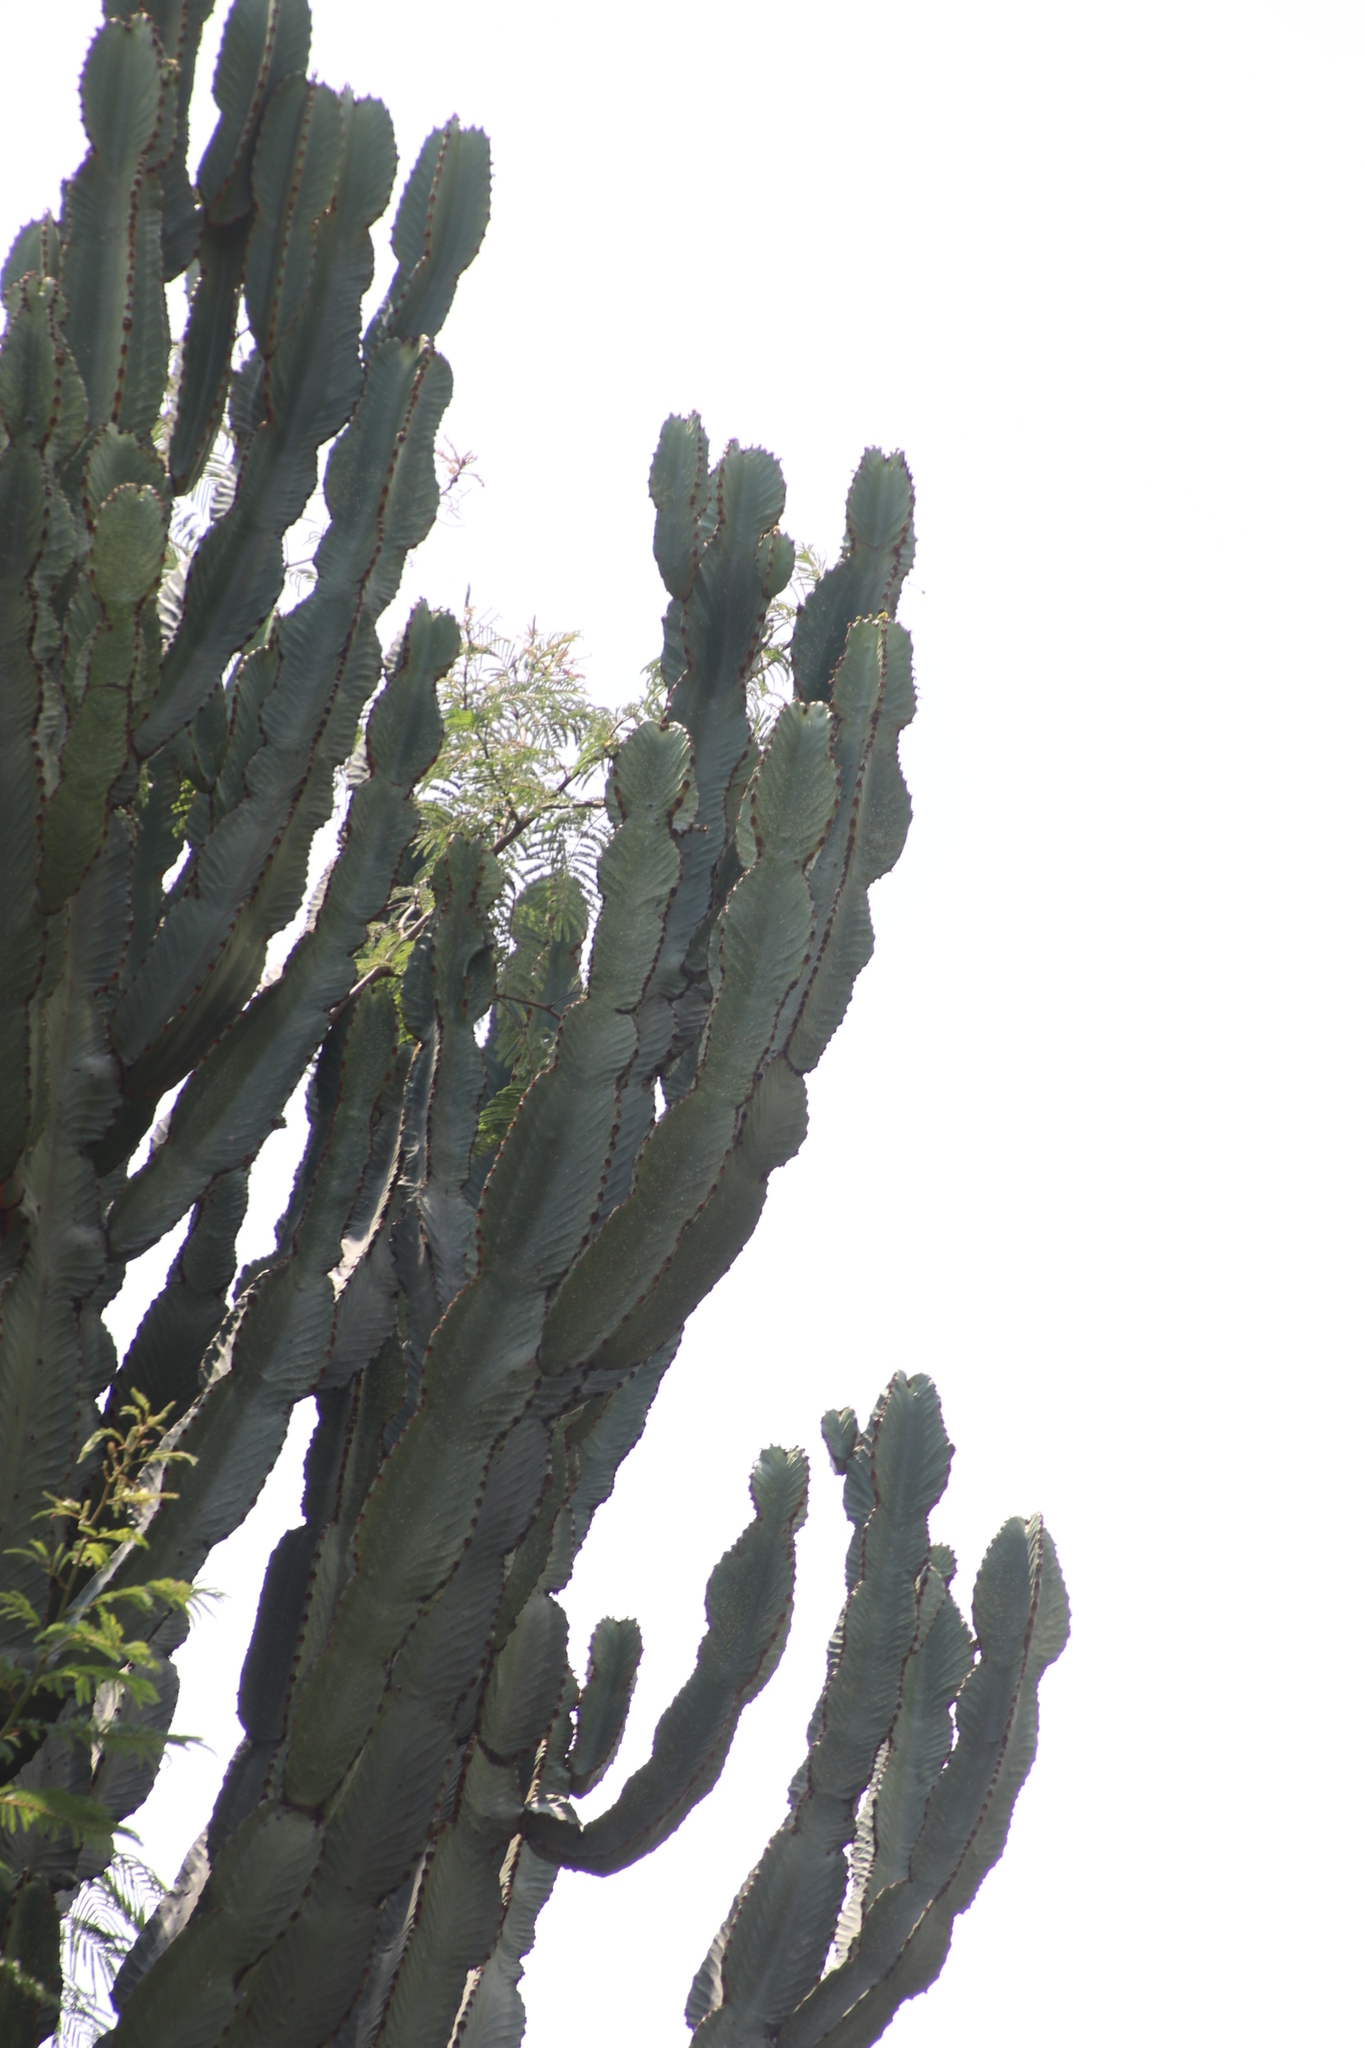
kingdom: Plantae
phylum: Tracheophyta
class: Magnoliopsida
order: Malpighiales
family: Euphorbiaceae
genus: Euphorbia
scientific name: Euphorbia ingens
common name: Cactus spurge
